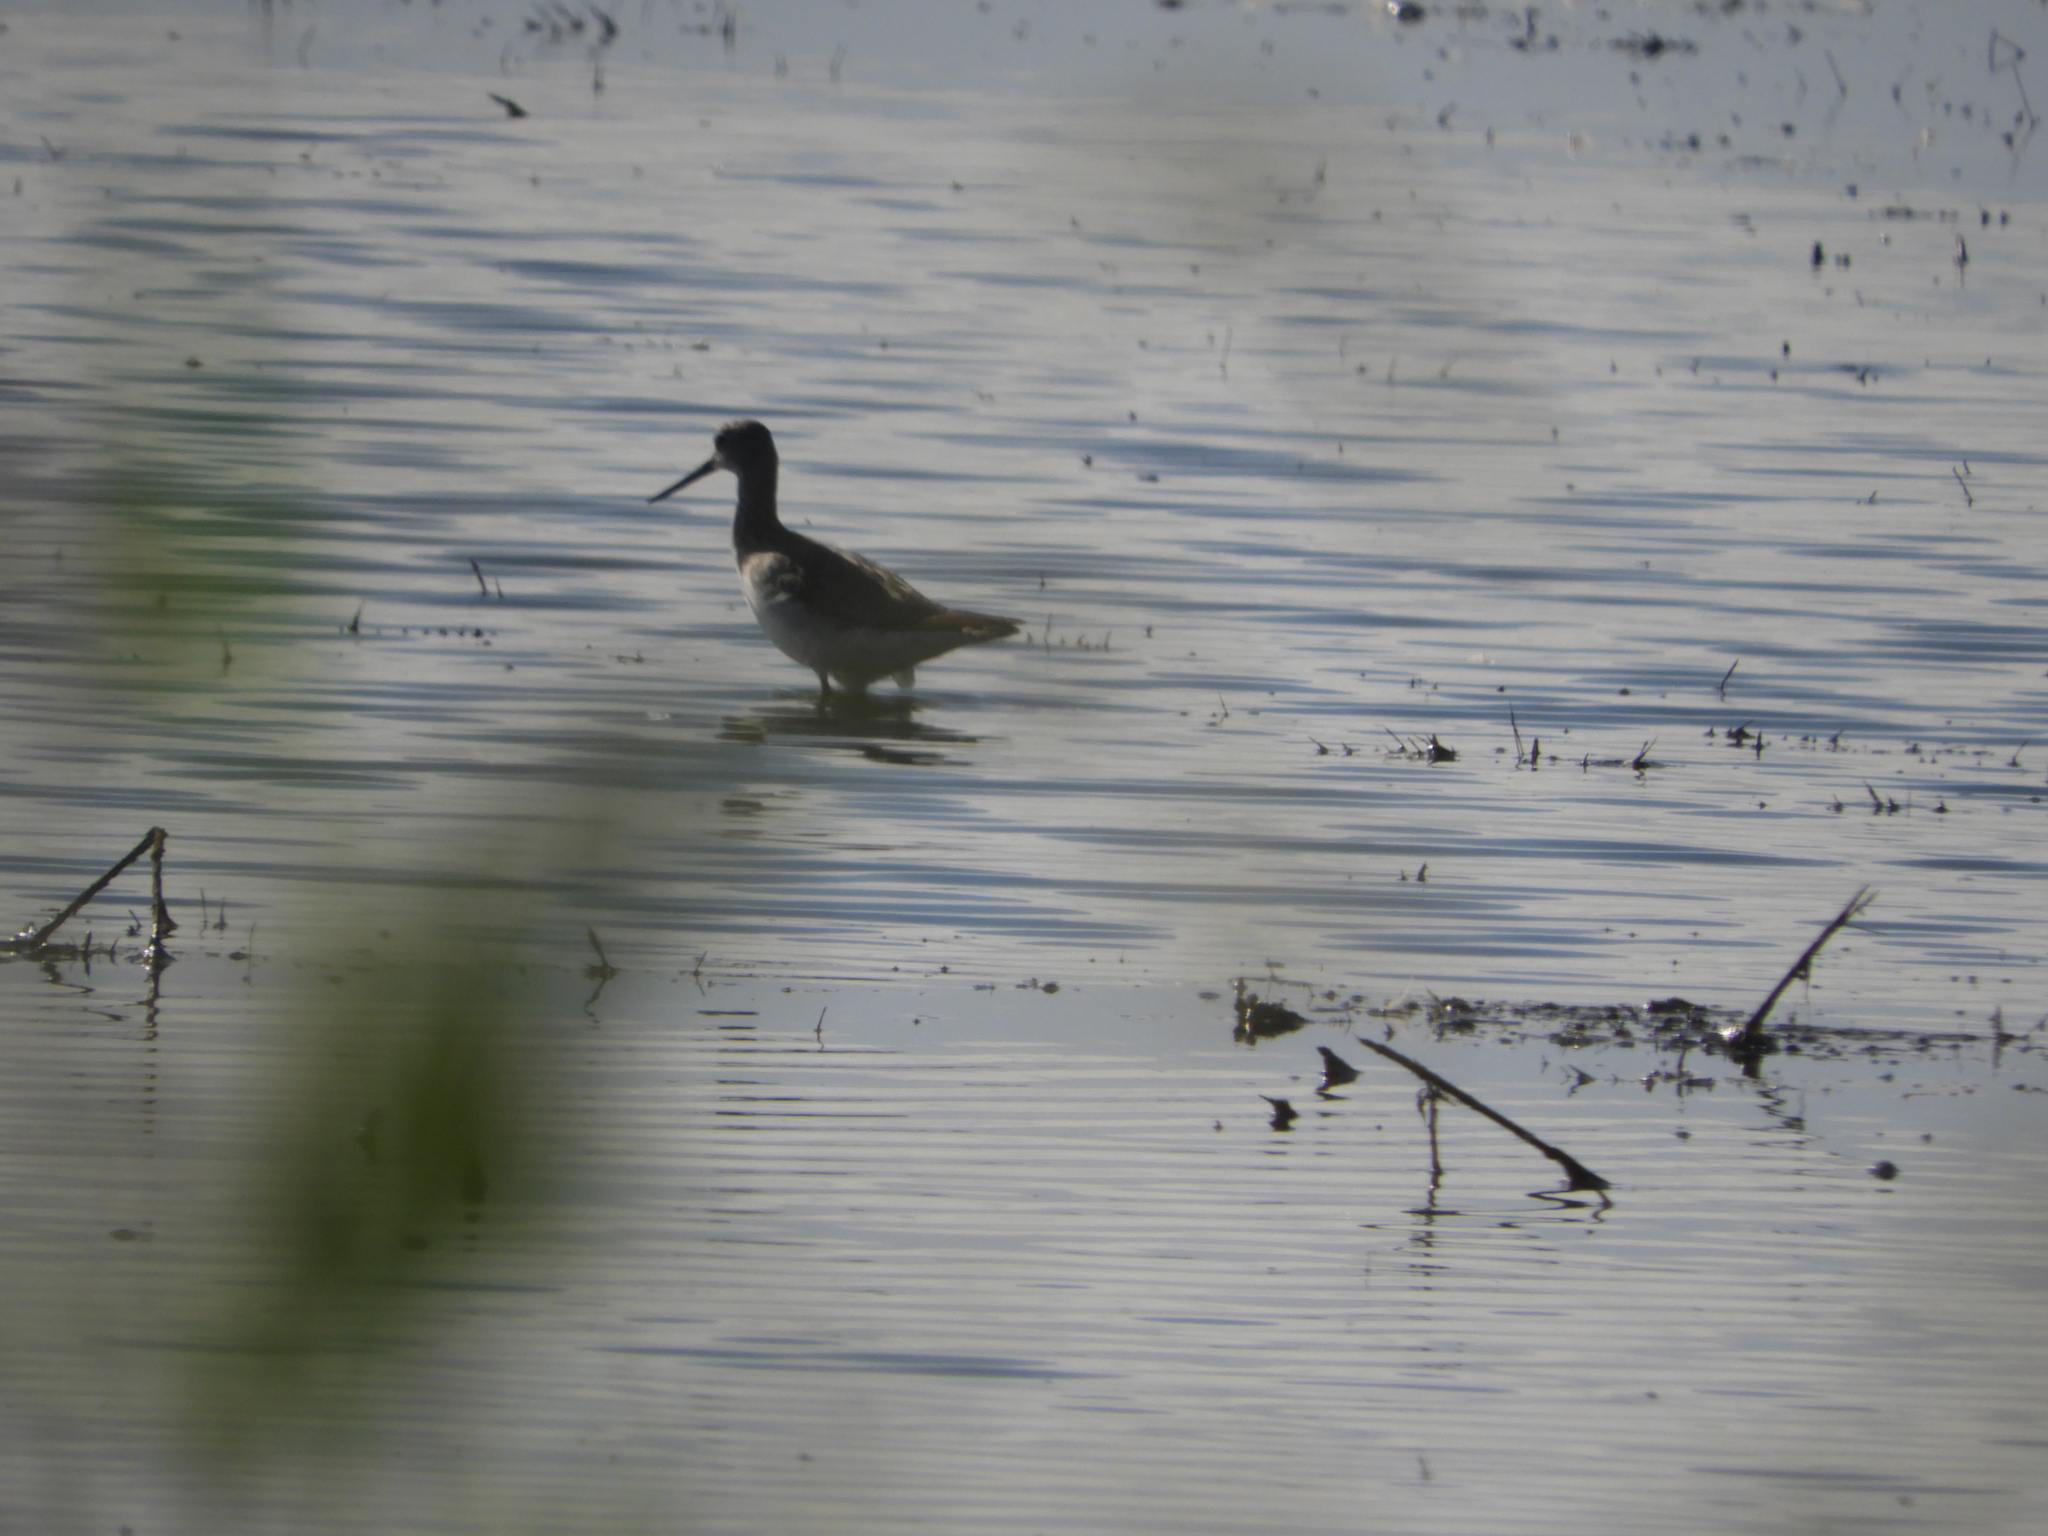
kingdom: Animalia
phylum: Chordata
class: Aves
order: Charadriiformes
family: Scolopacidae
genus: Tringa
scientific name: Tringa melanoleuca
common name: Greater yellowlegs
